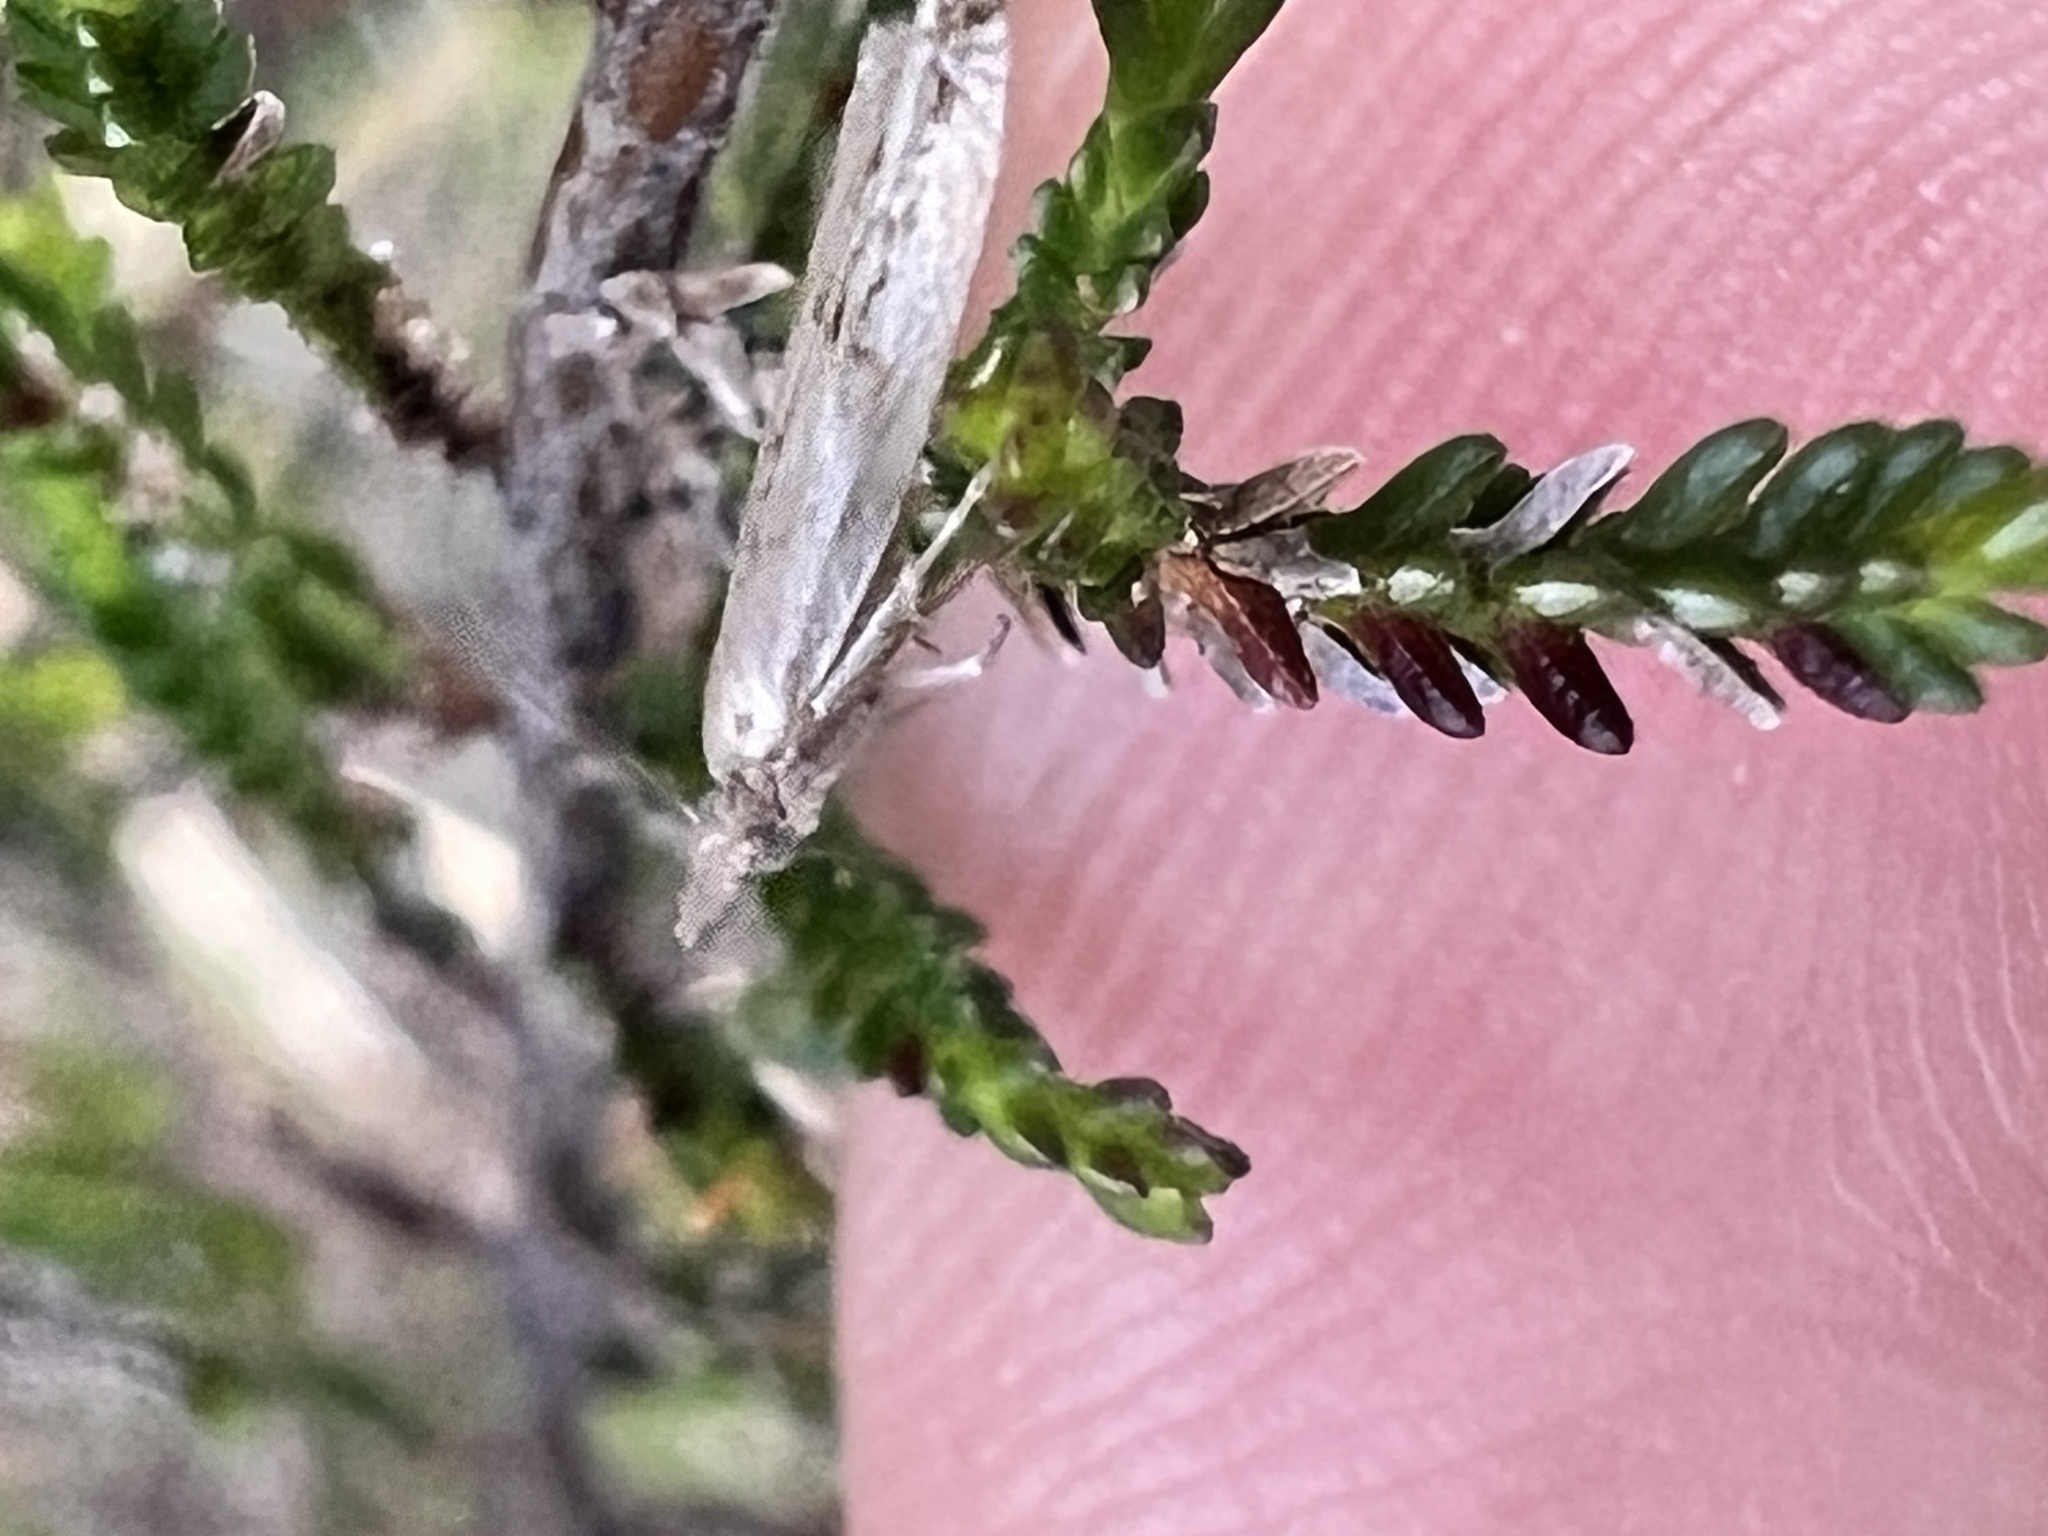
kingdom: Animalia
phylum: Arthropoda
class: Insecta
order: Lepidoptera
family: Tortricidae
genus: Holocola
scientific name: Holocola zopherana
